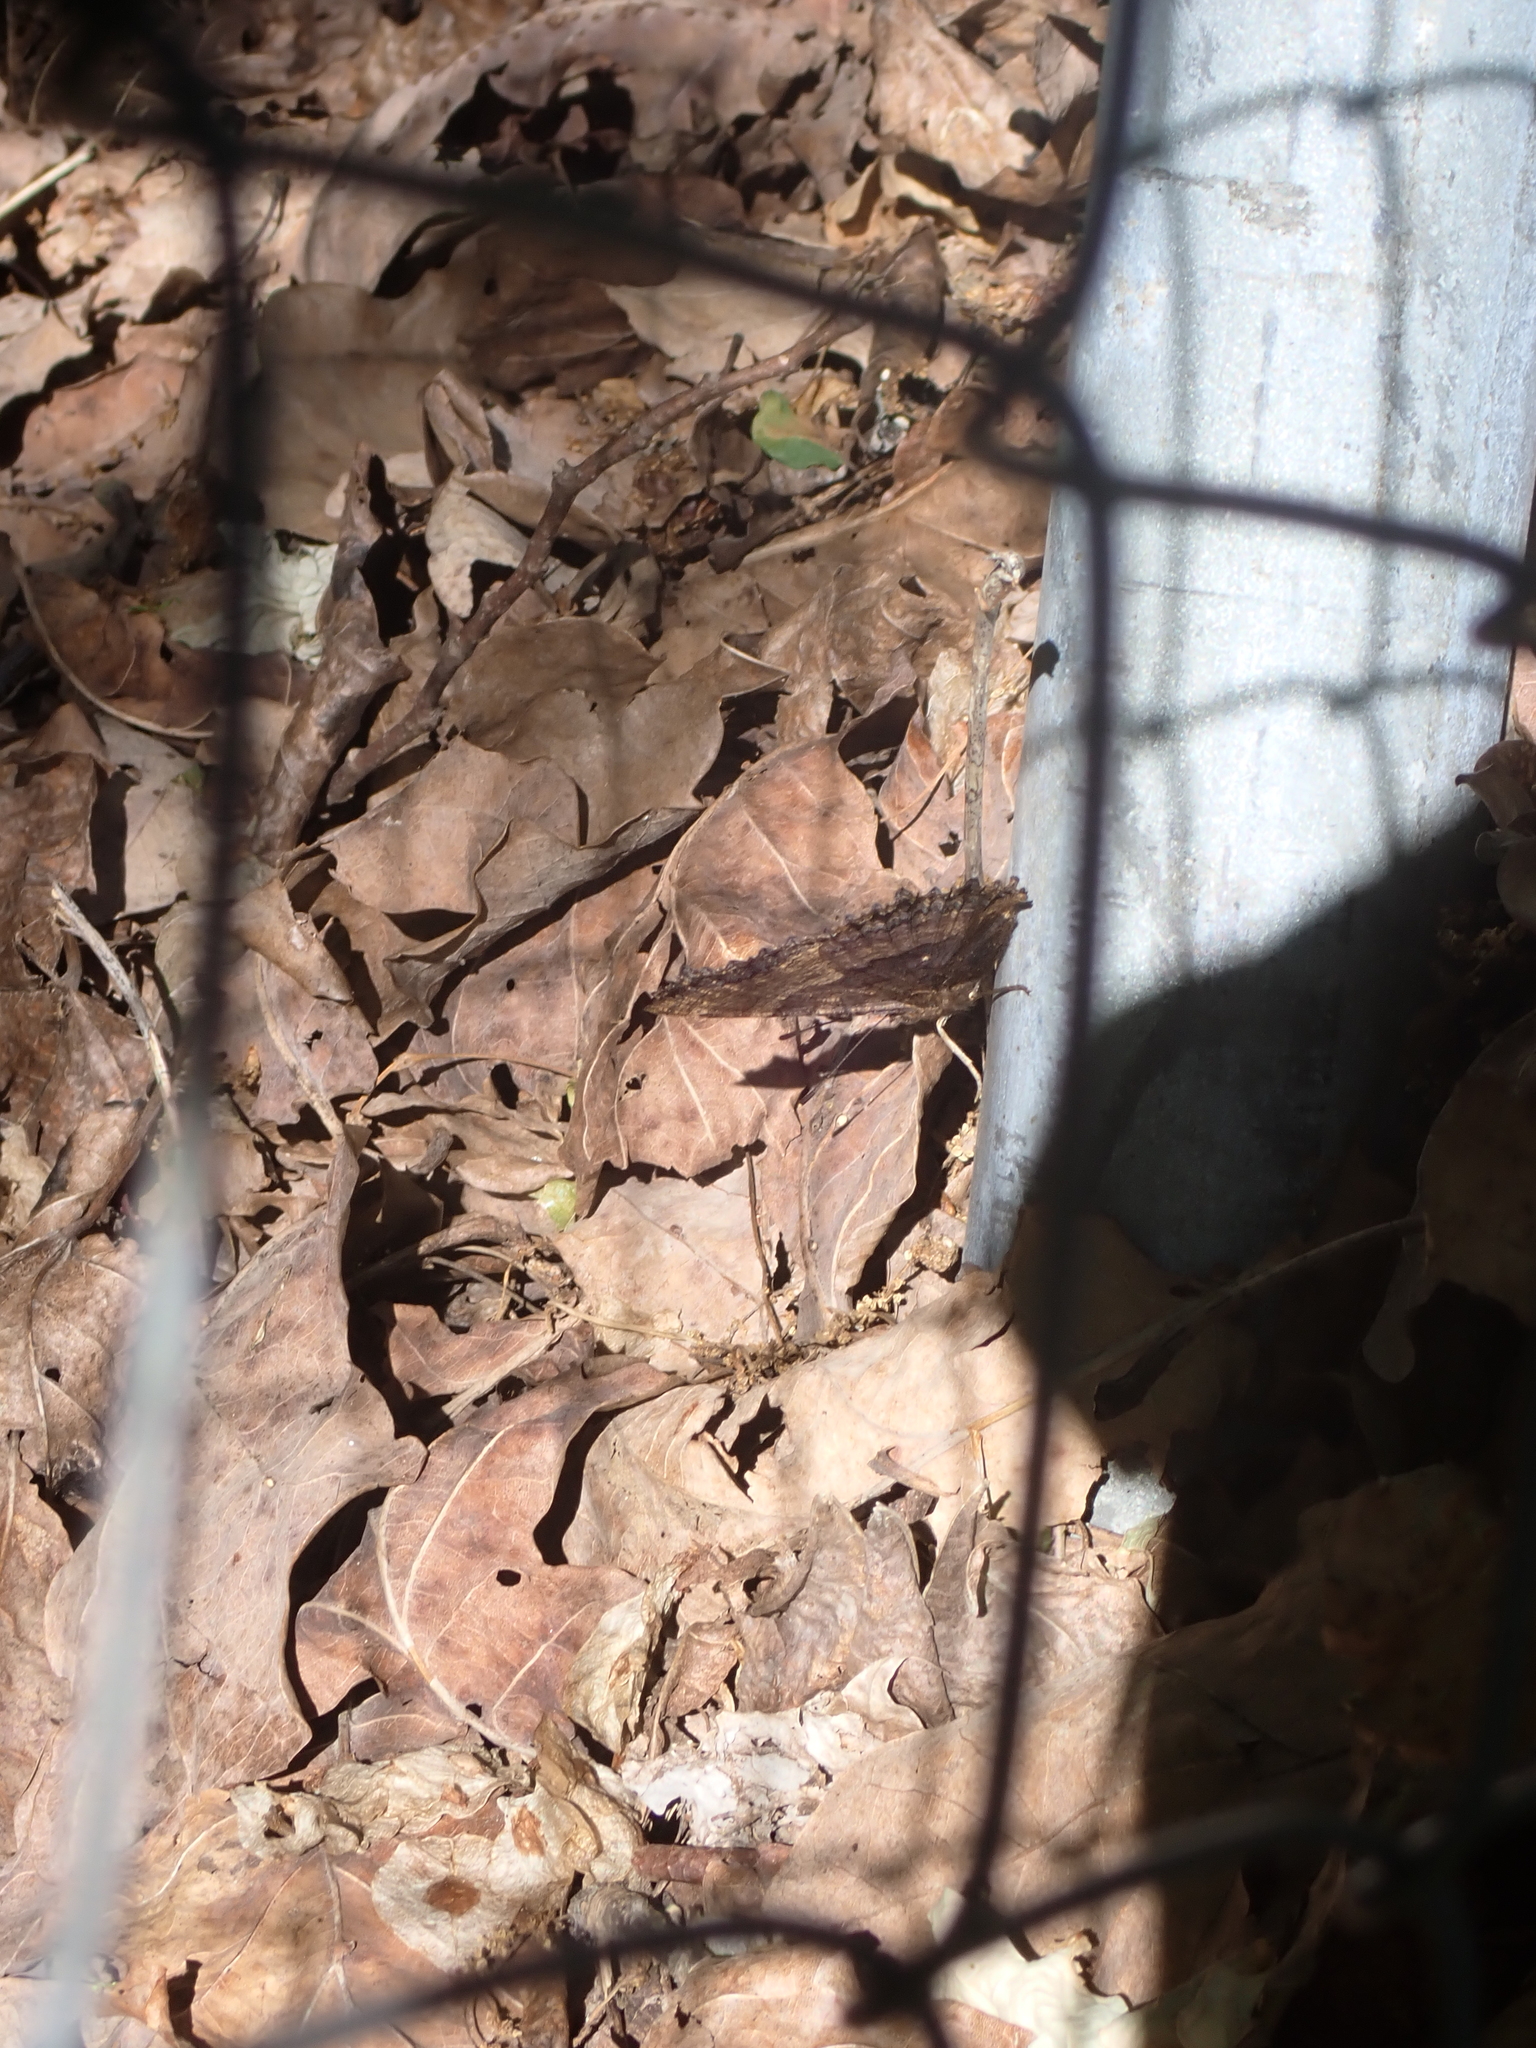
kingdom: Animalia
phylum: Arthropoda
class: Insecta
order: Lepidoptera
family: Nymphalidae
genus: Nymphalis
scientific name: Nymphalis polychloros
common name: Large tortoiseshell
